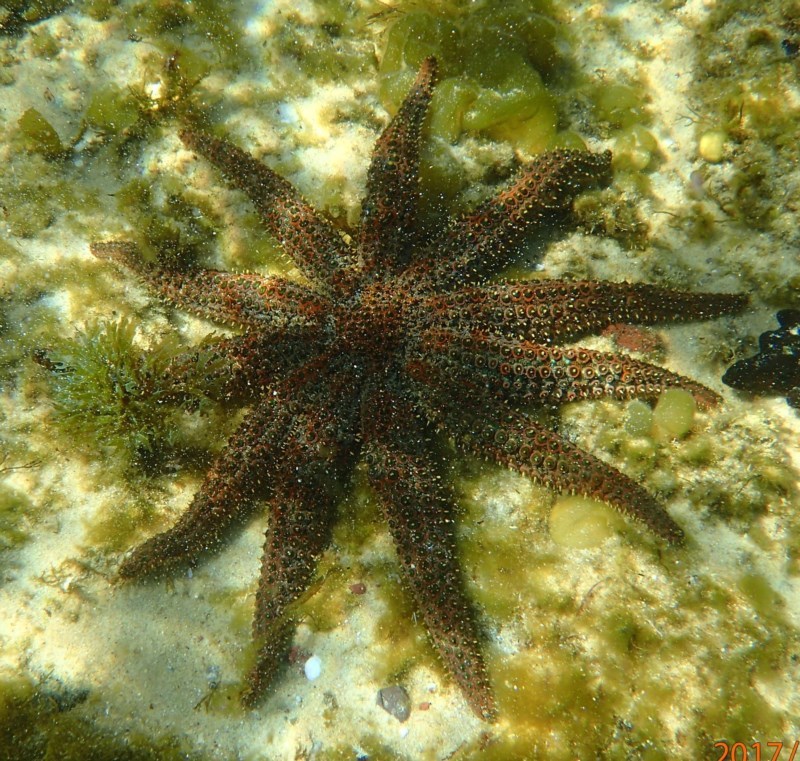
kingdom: Animalia
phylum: Echinodermata
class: Asteroidea
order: Forcipulatida
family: Asteriidae
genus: Coscinasterias
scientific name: Coscinasterias muricata
